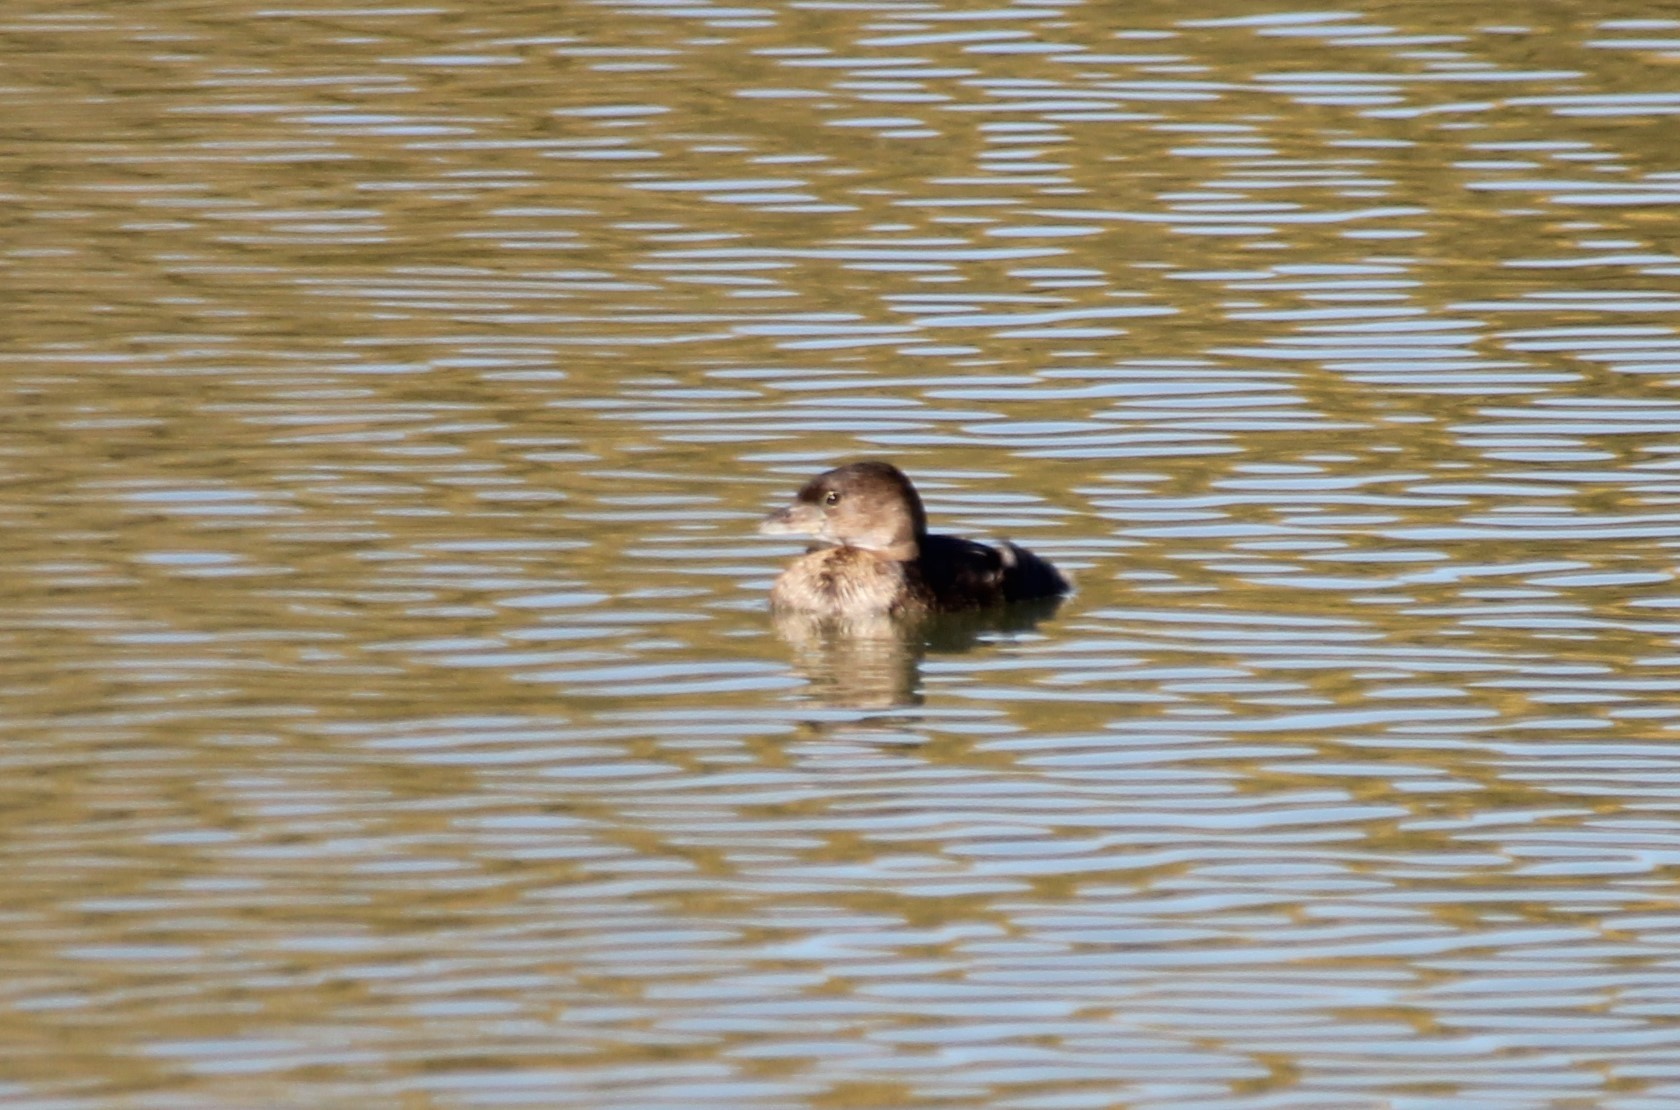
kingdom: Animalia
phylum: Chordata
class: Aves
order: Podicipediformes
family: Podicipedidae
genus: Podilymbus
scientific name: Podilymbus podiceps
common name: Pied-billed grebe
